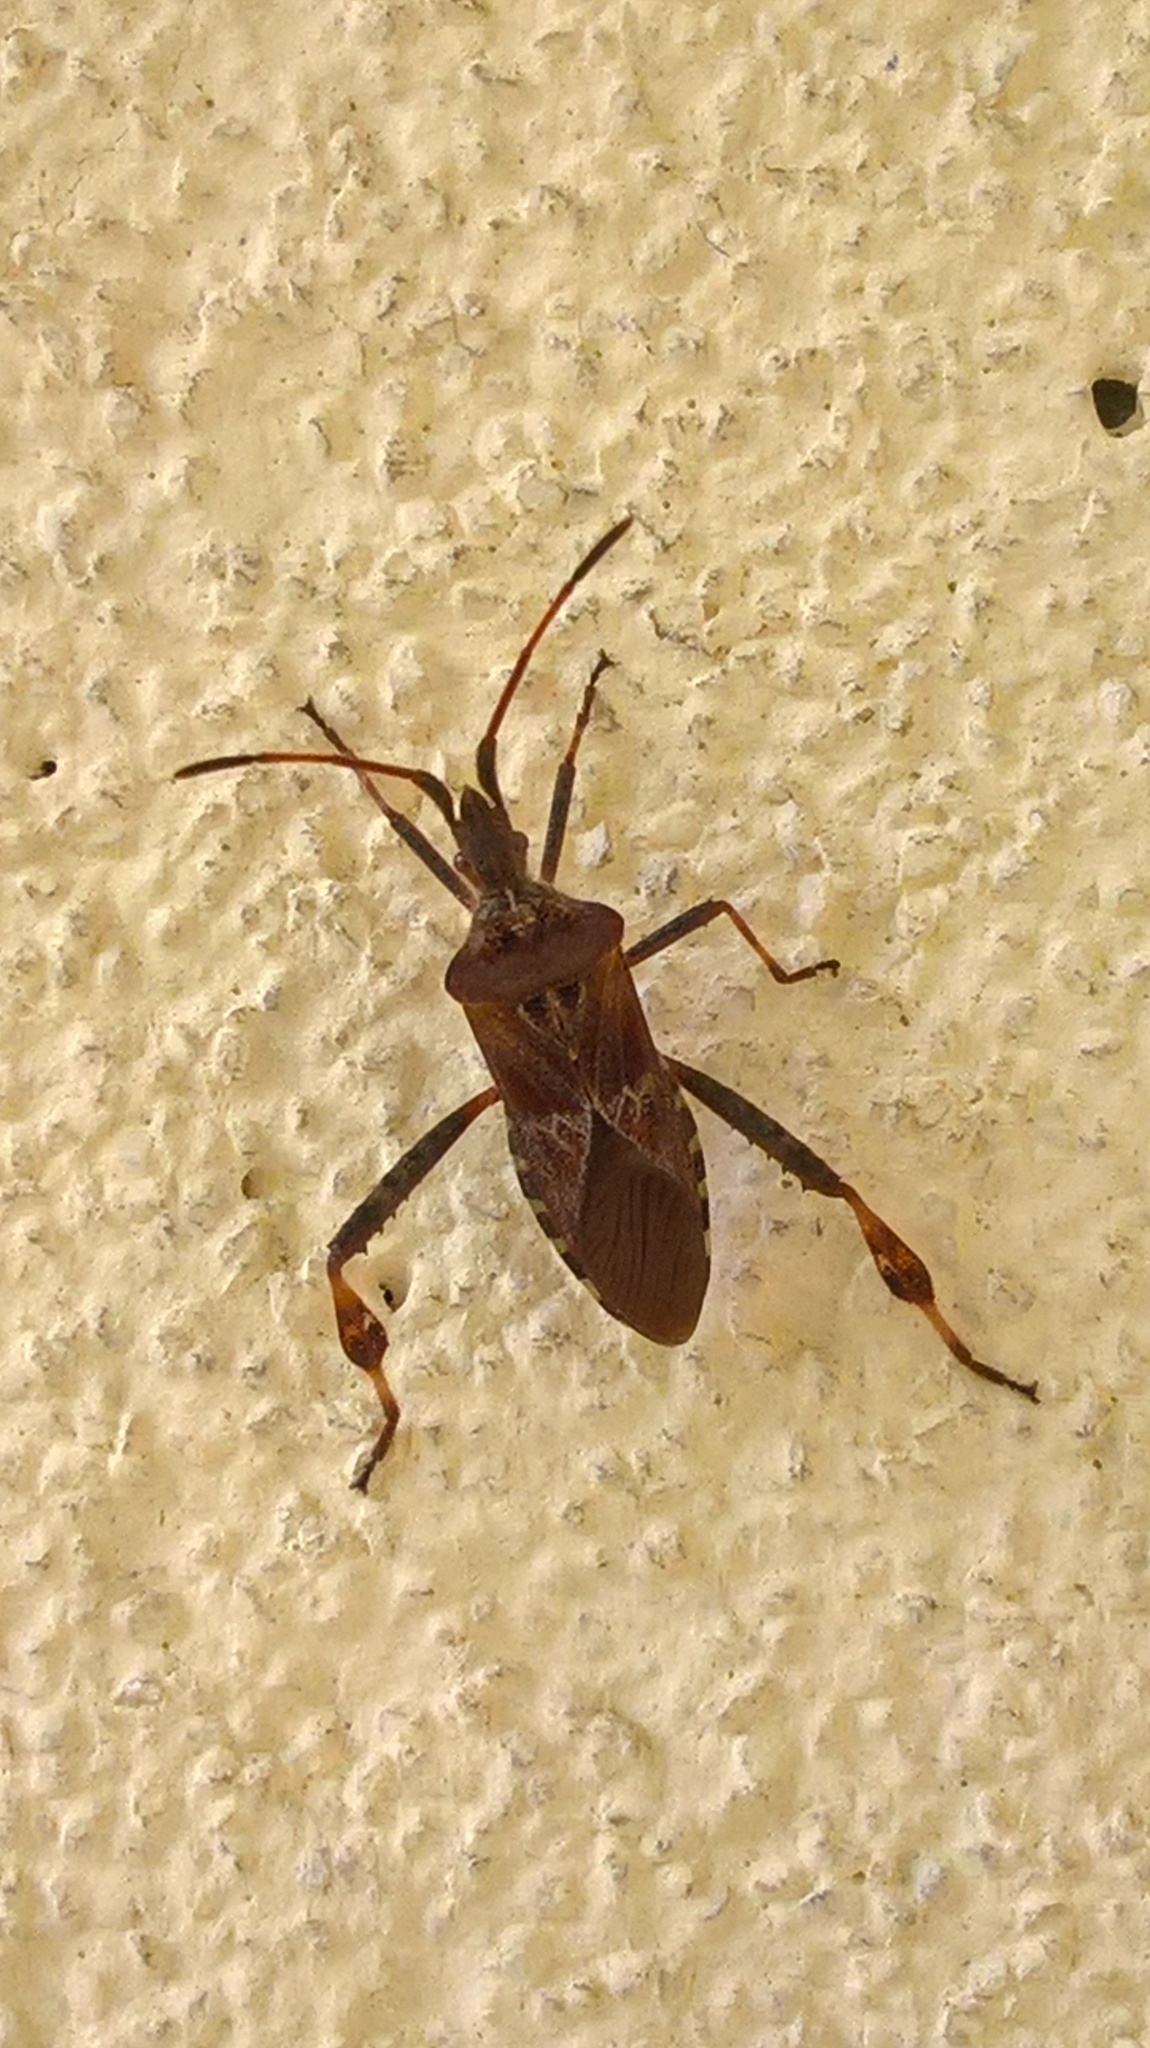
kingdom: Animalia
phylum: Arthropoda
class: Insecta
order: Hemiptera
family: Coreidae
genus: Leptoglossus
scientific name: Leptoglossus occidentalis
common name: Western conifer-seed bug
